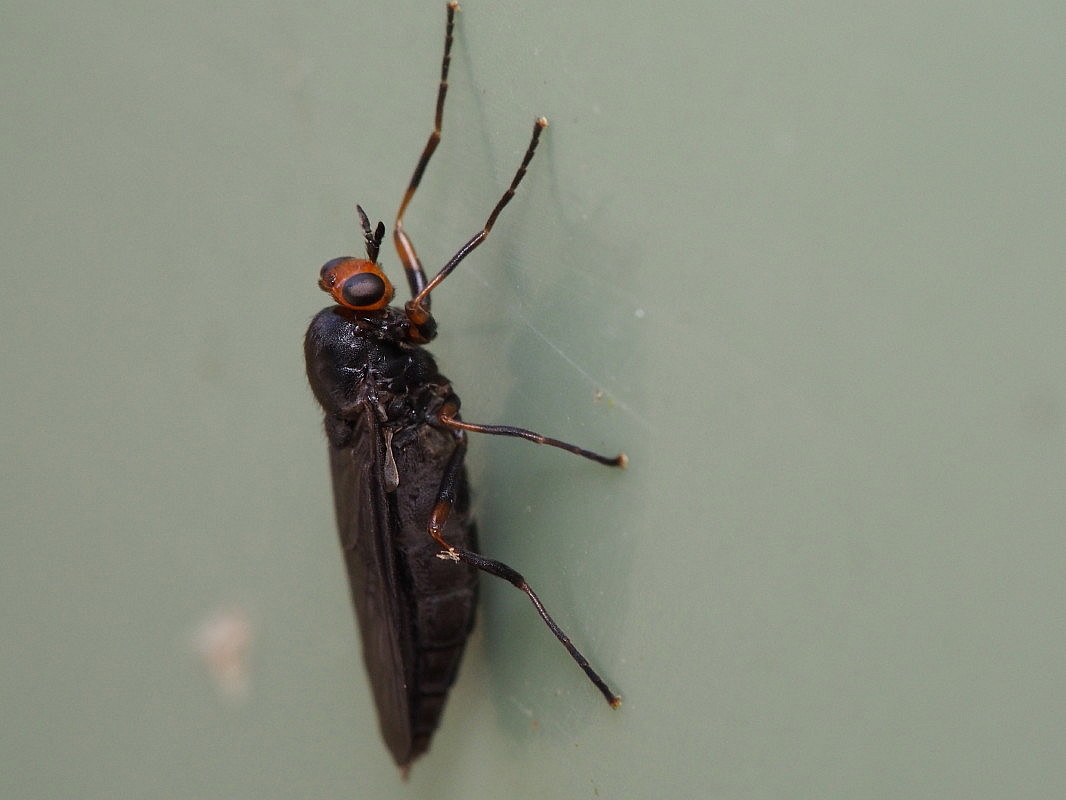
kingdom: Animalia
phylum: Arthropoda
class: Insecta
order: Diptera
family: Stratiomyidae
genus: Inopus
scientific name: Inopus rubriceps
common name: Soldier fly
